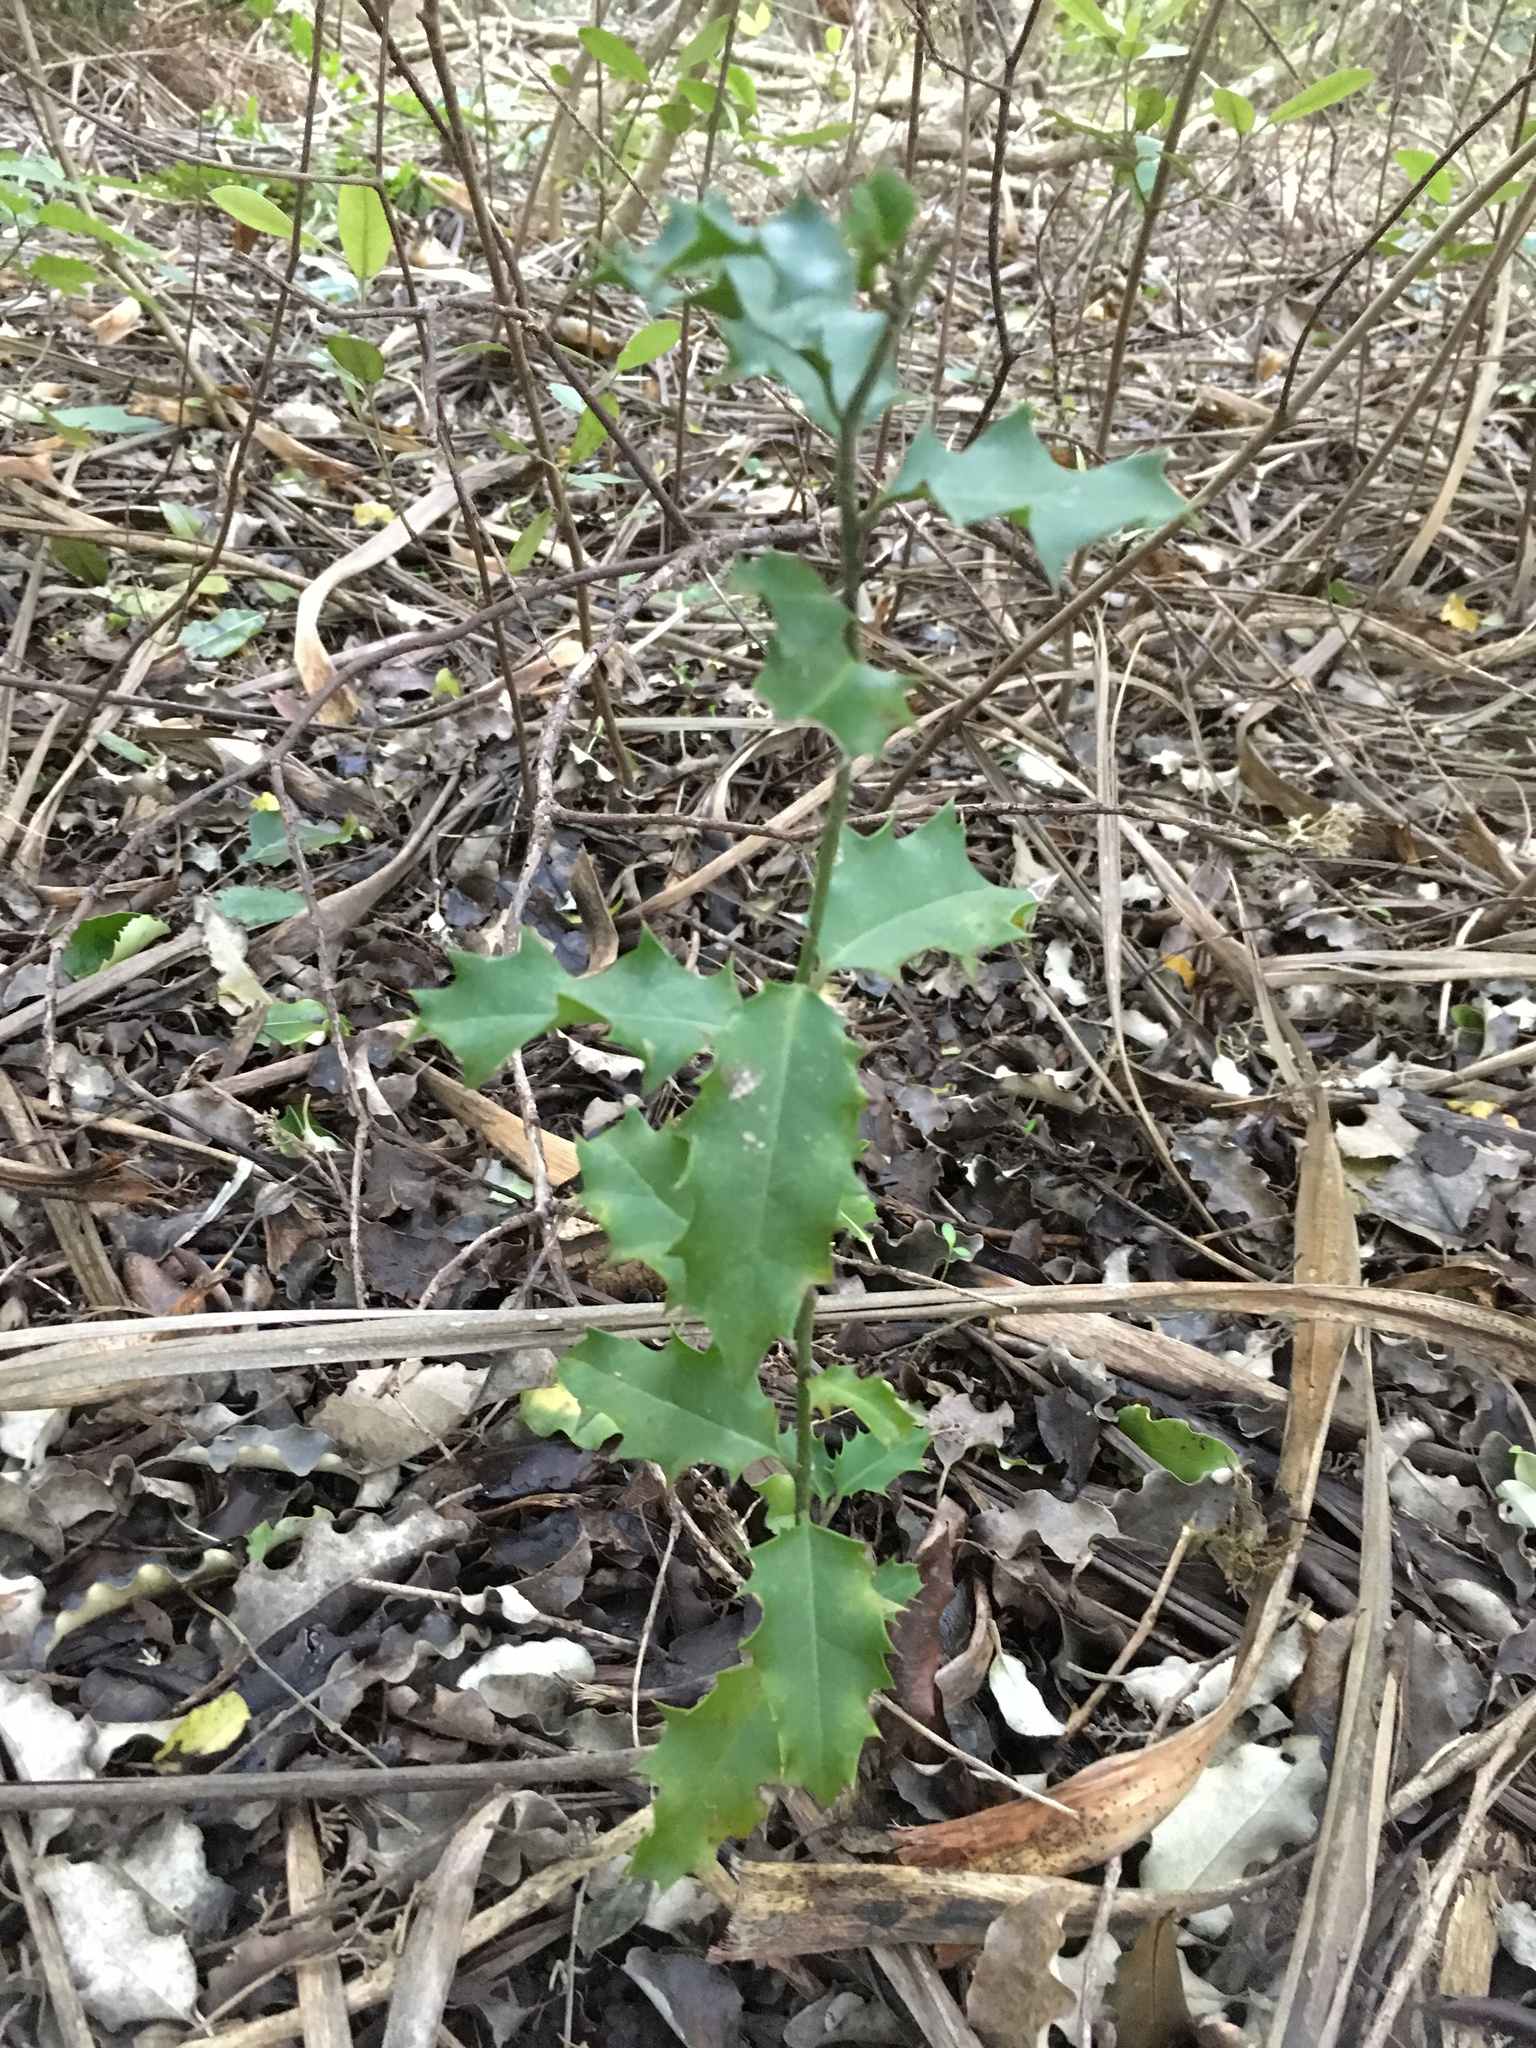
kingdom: Plantae
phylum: Tracheophyta
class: Magnoliopsida
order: Aquifoliales
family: Aquifoliaceae
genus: Ilex
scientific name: Ilex aquifolium
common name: English holly
